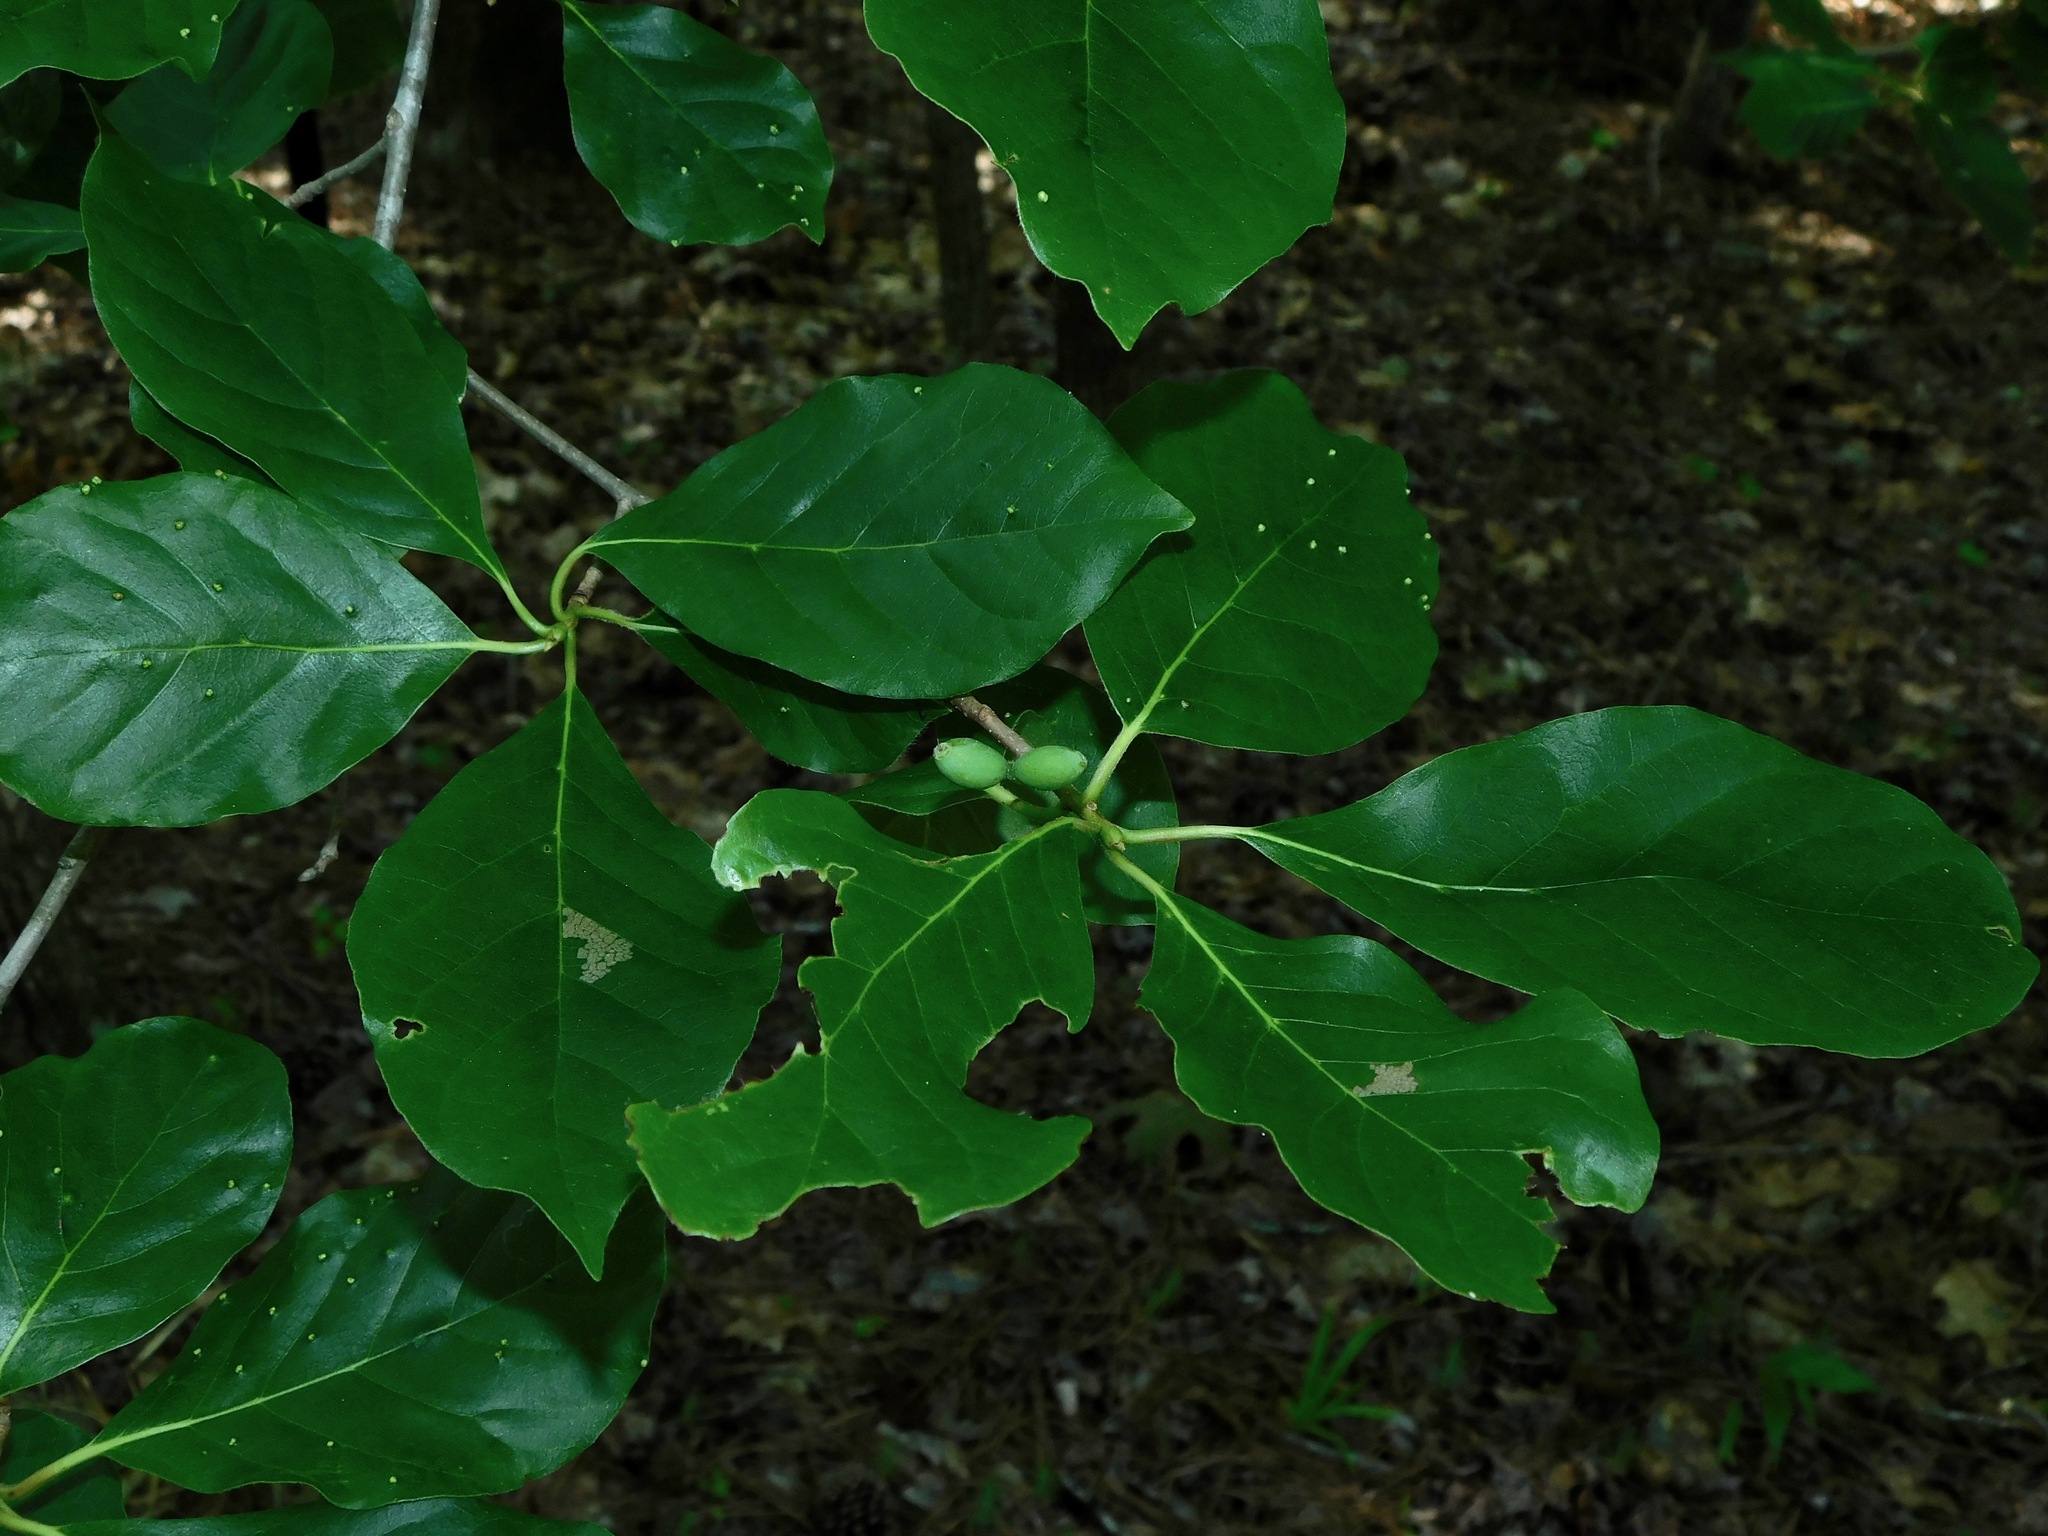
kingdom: Plantae
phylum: Tracheophyta
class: Magnoliopsida
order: Cornales
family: Nyssaceae
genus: Nyssa
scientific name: Nyssa sylvatica
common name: Black tupelo
